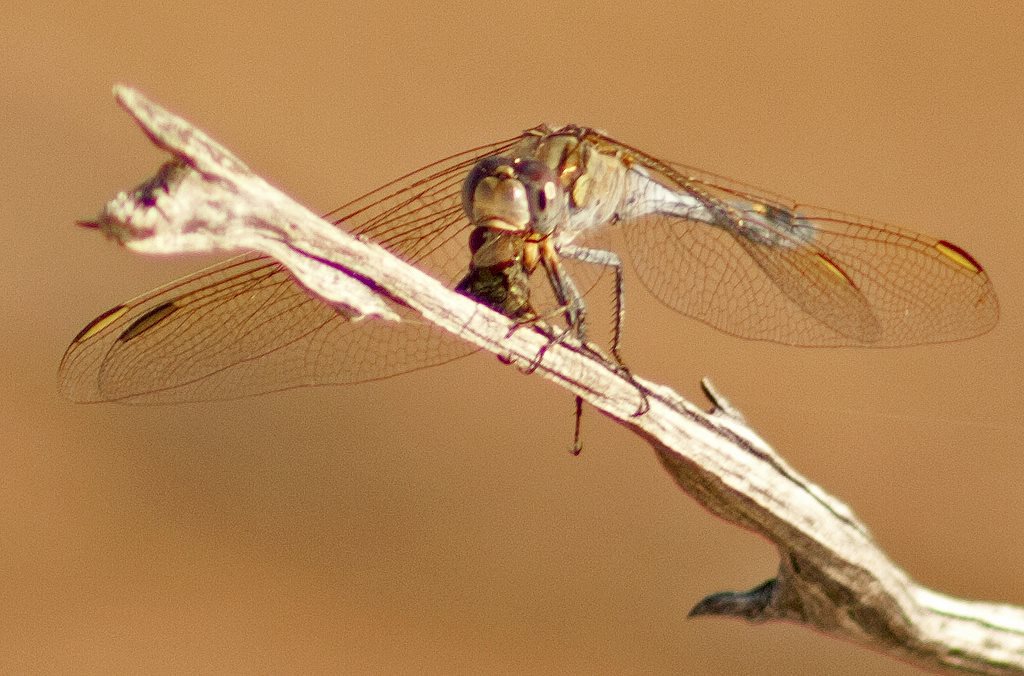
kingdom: Animalia
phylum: Arthropoda
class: Insecta
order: Odonata
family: Libellulidae
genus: Orthetrum
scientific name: Orthetrum caledonicum
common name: Blue skimmer
